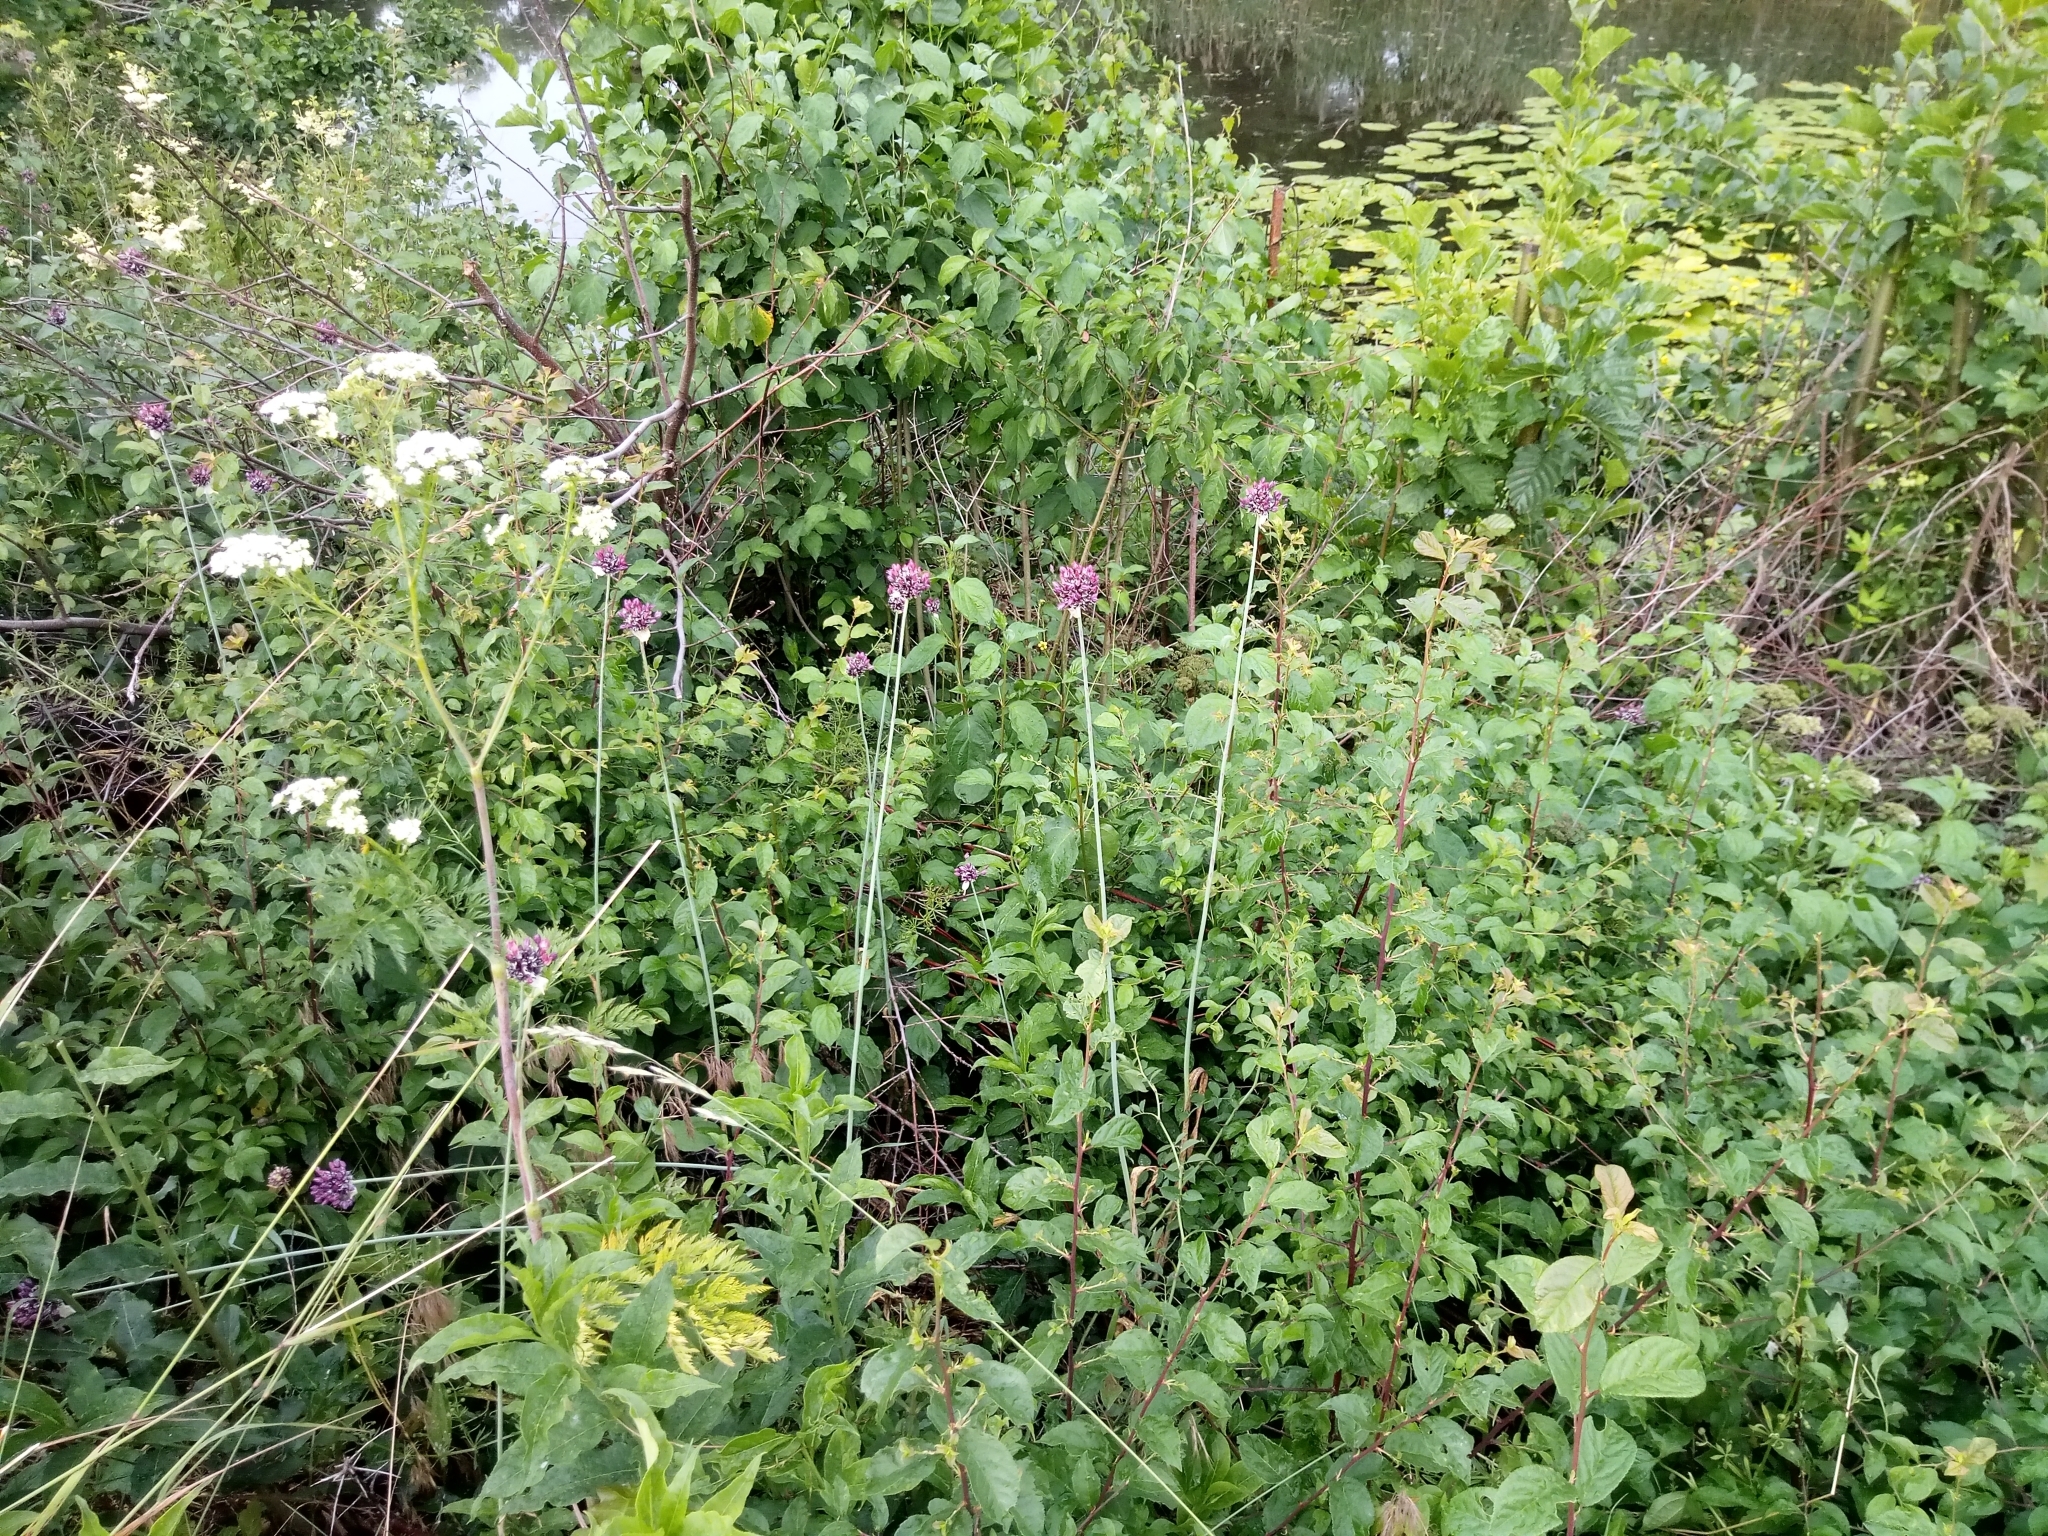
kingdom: Plantae
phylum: Tracheophyta
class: Liliopsida
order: Asparagales
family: Amaryllidaceae
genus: Allium
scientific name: Allium scorodoprasum
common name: Sand leek
